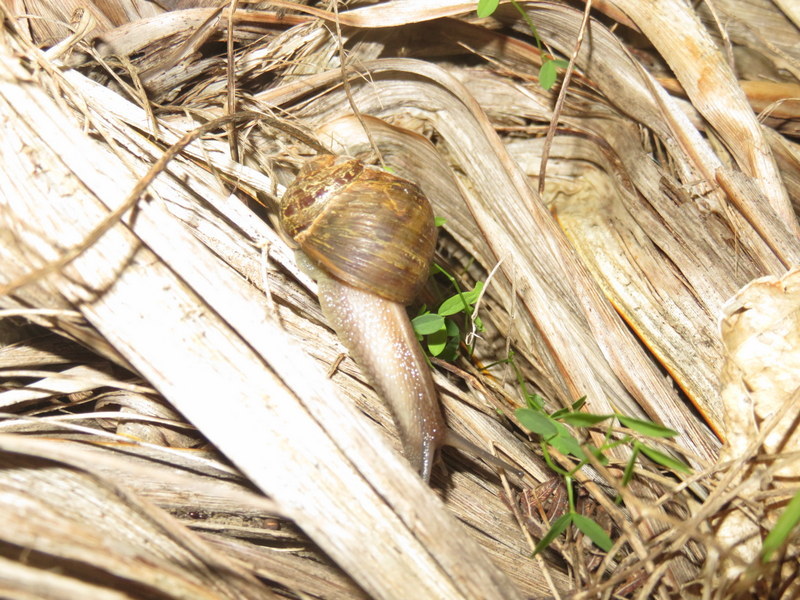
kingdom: Animalia
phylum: Mollusca
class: Gastropoda
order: Stylommatophora
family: Helicidae
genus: Cornu
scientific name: Cornu aspersum
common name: Brown garden snail
